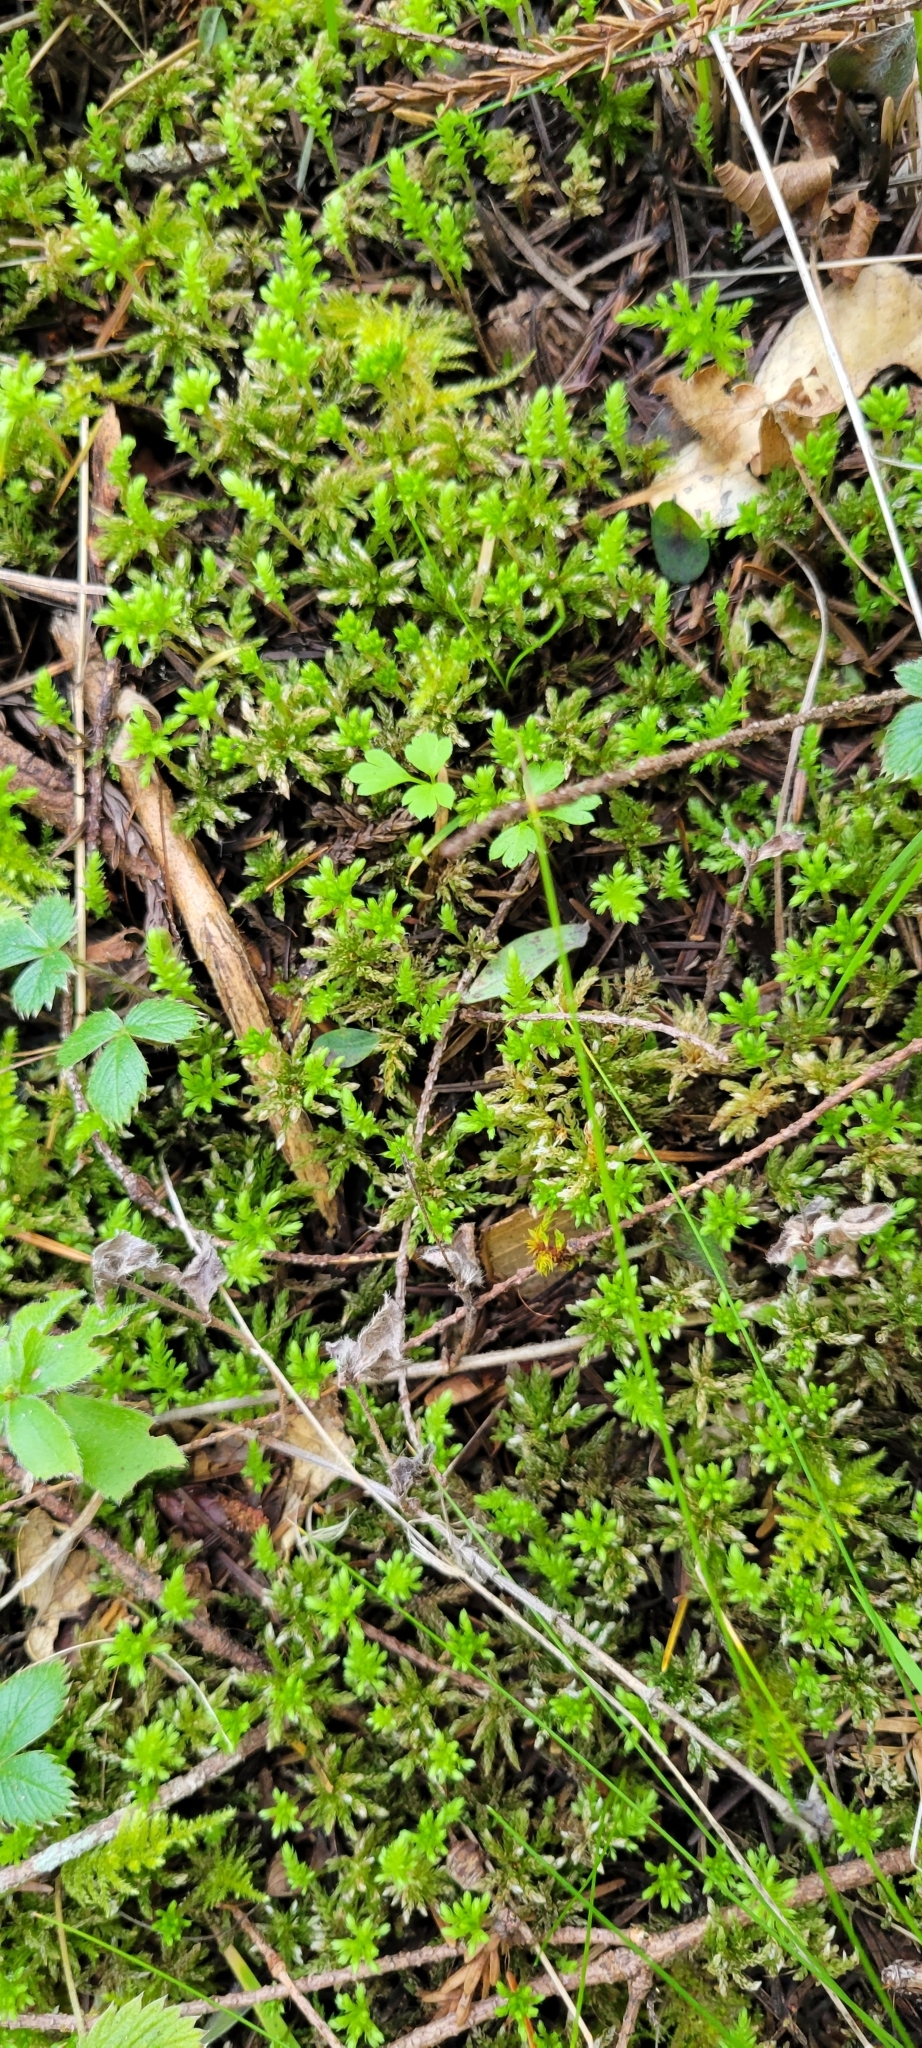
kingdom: Plantae
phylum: Bryophyta
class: Bryopsida
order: Bryales
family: Mniaceae
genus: Leucolepis
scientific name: Leucolepis acanthoneura
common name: Leucolepis umbrella moss
